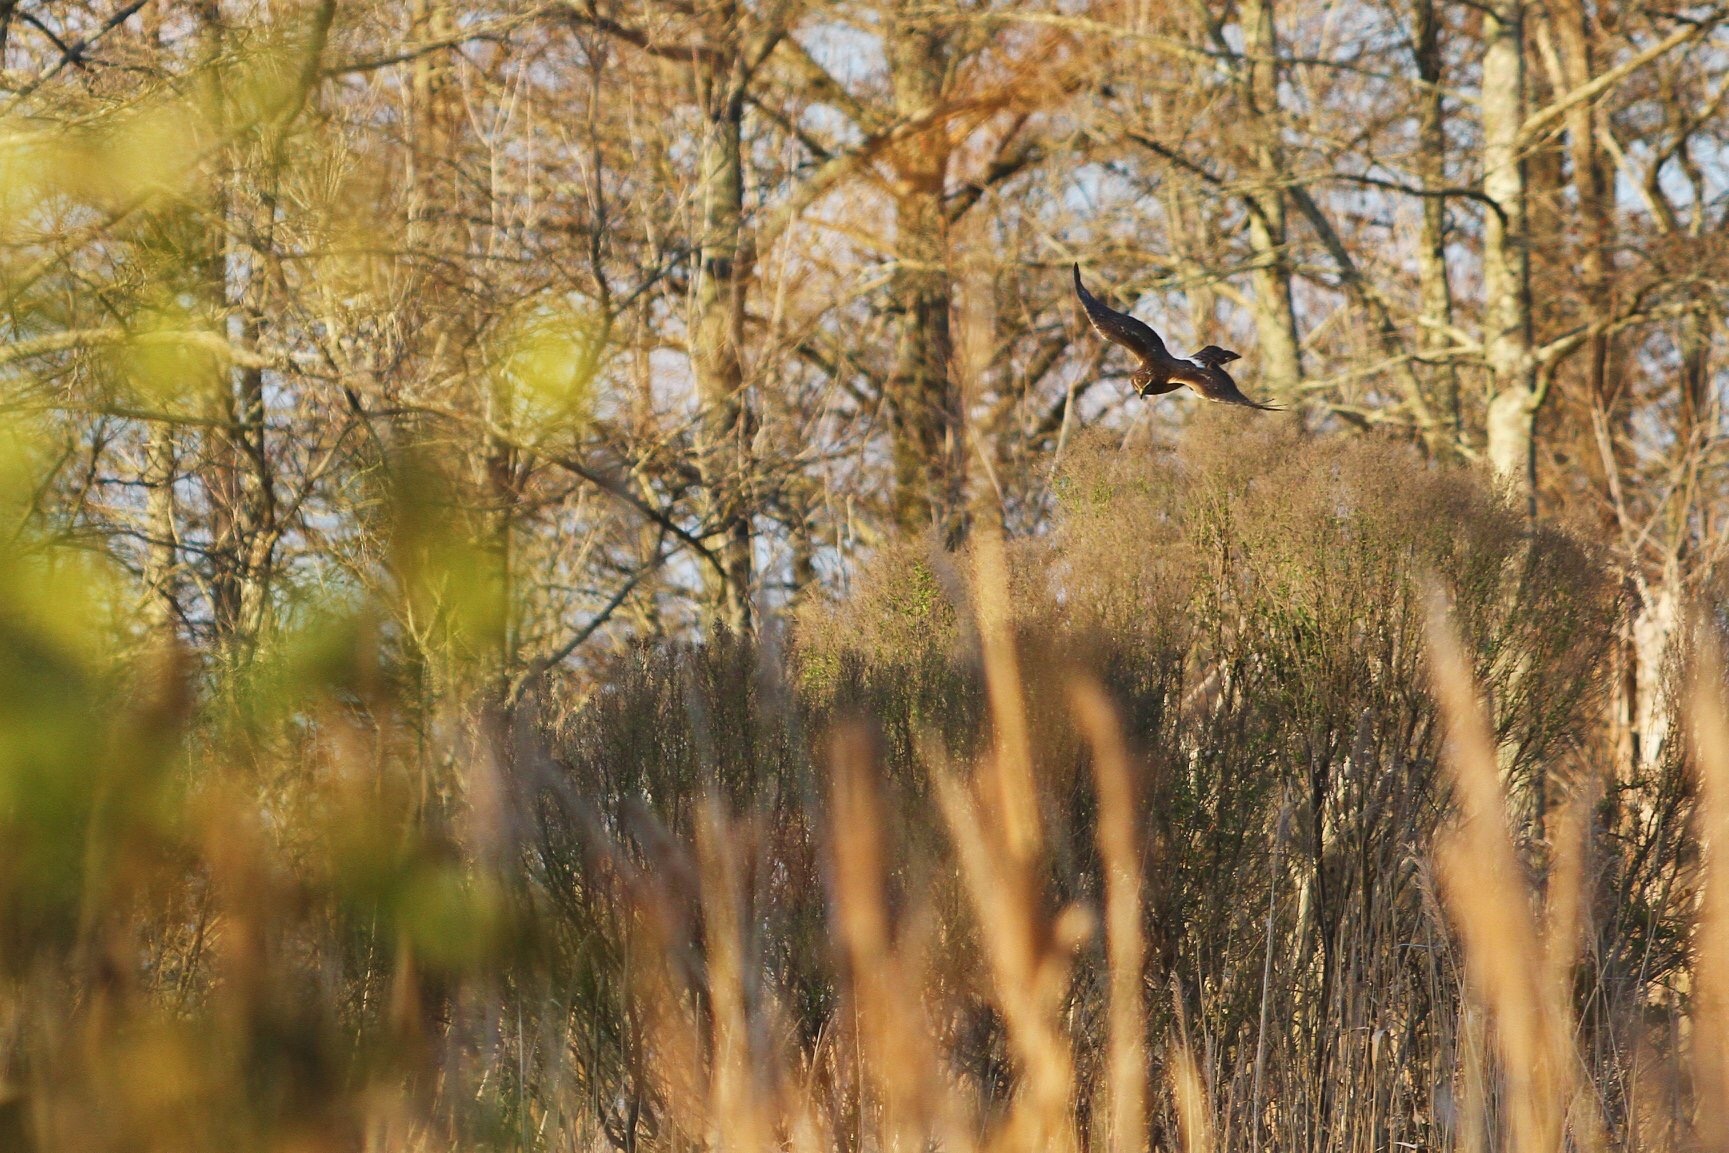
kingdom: Animalia
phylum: Chordata
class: Aves
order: Accipitriformes
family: Accipitridae
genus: Circus
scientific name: Circus cyaneus
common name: Hen harrier
